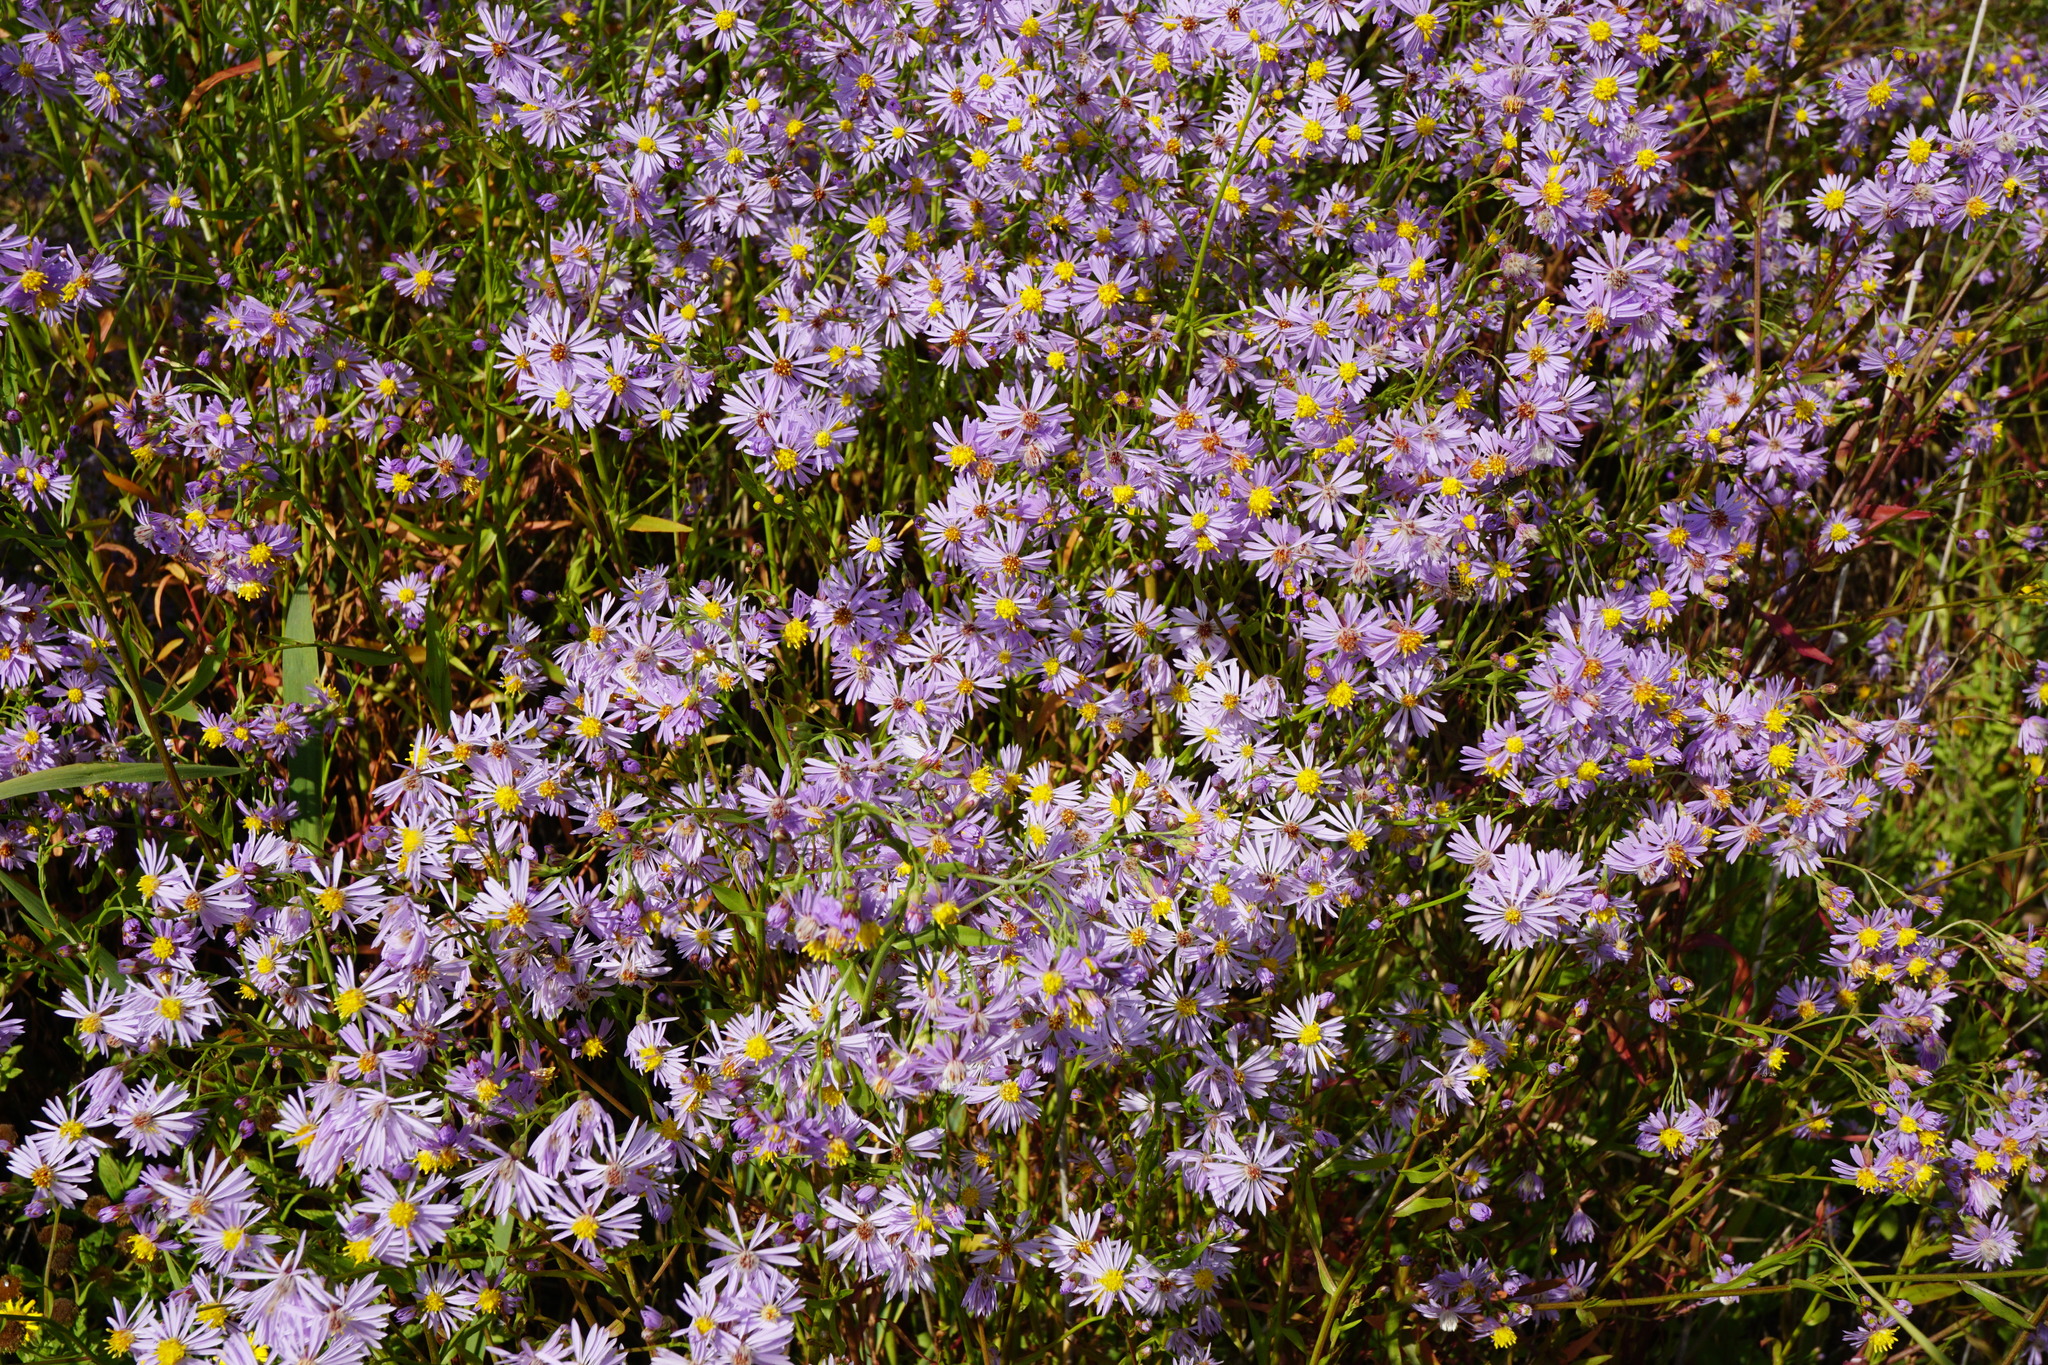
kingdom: Plantae
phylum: Tracheophyta
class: Magnoliopsida
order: Asterales
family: Asteraceae
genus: Tripolium
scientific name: Tripolium pannonicum
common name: Sea aster
